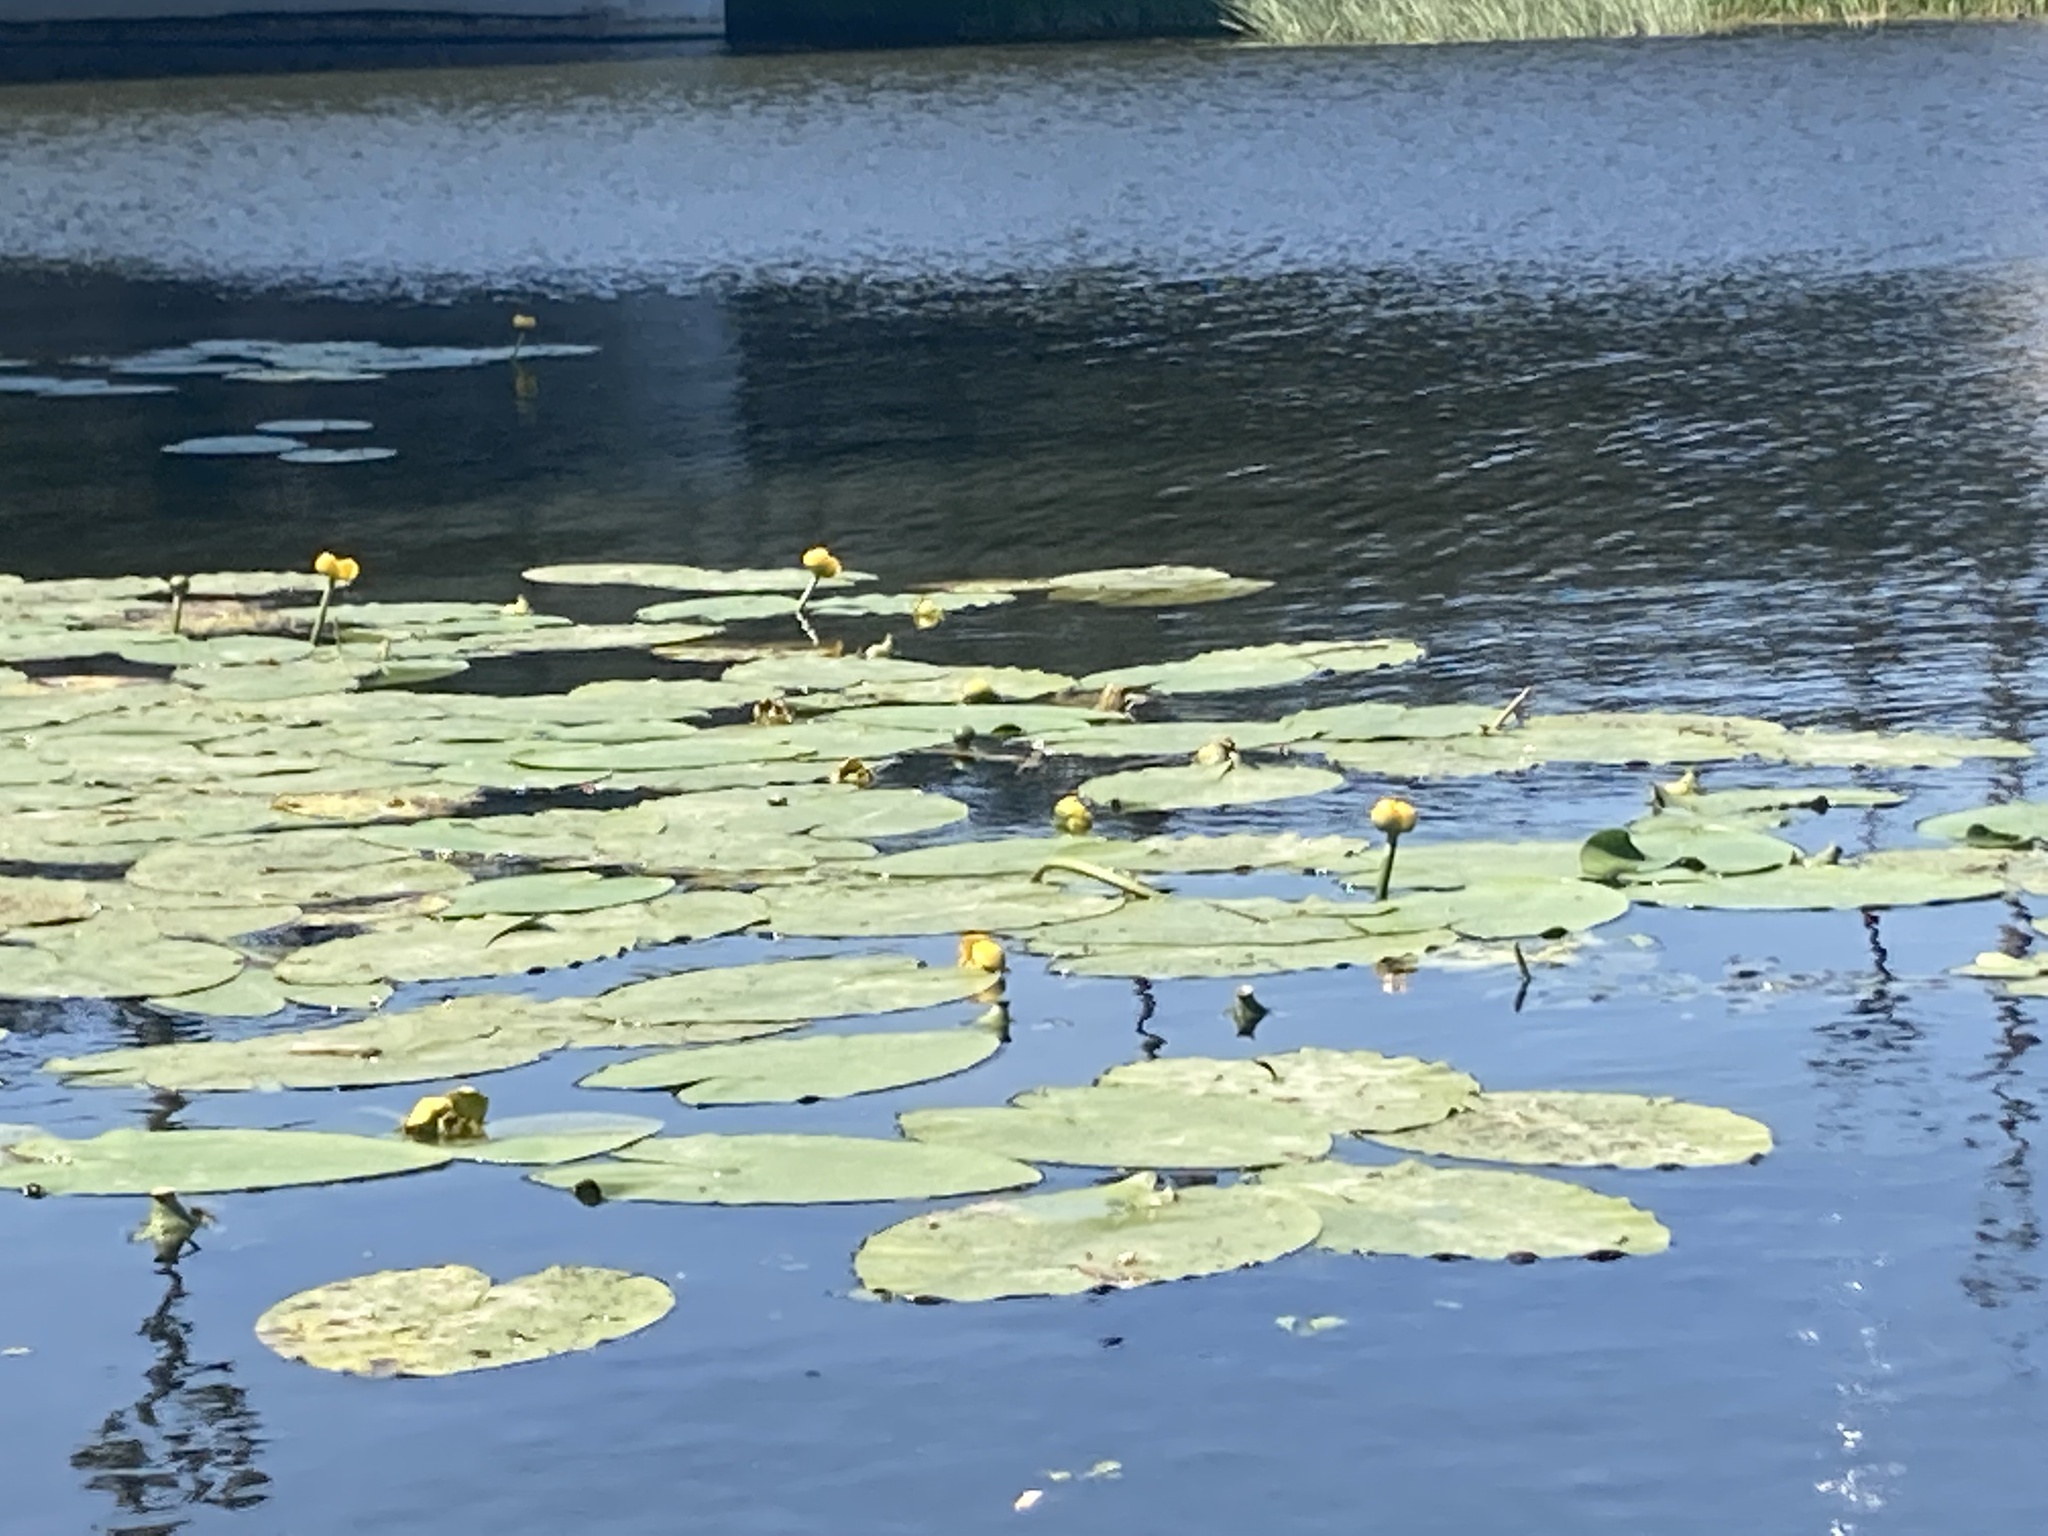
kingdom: Plantae
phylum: Tracheophyta
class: Magnoliopsida
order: Nymphaeales
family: Nymphaeaceae
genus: Nuphar
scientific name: Nuphar lutea
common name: Yellow water-lily
